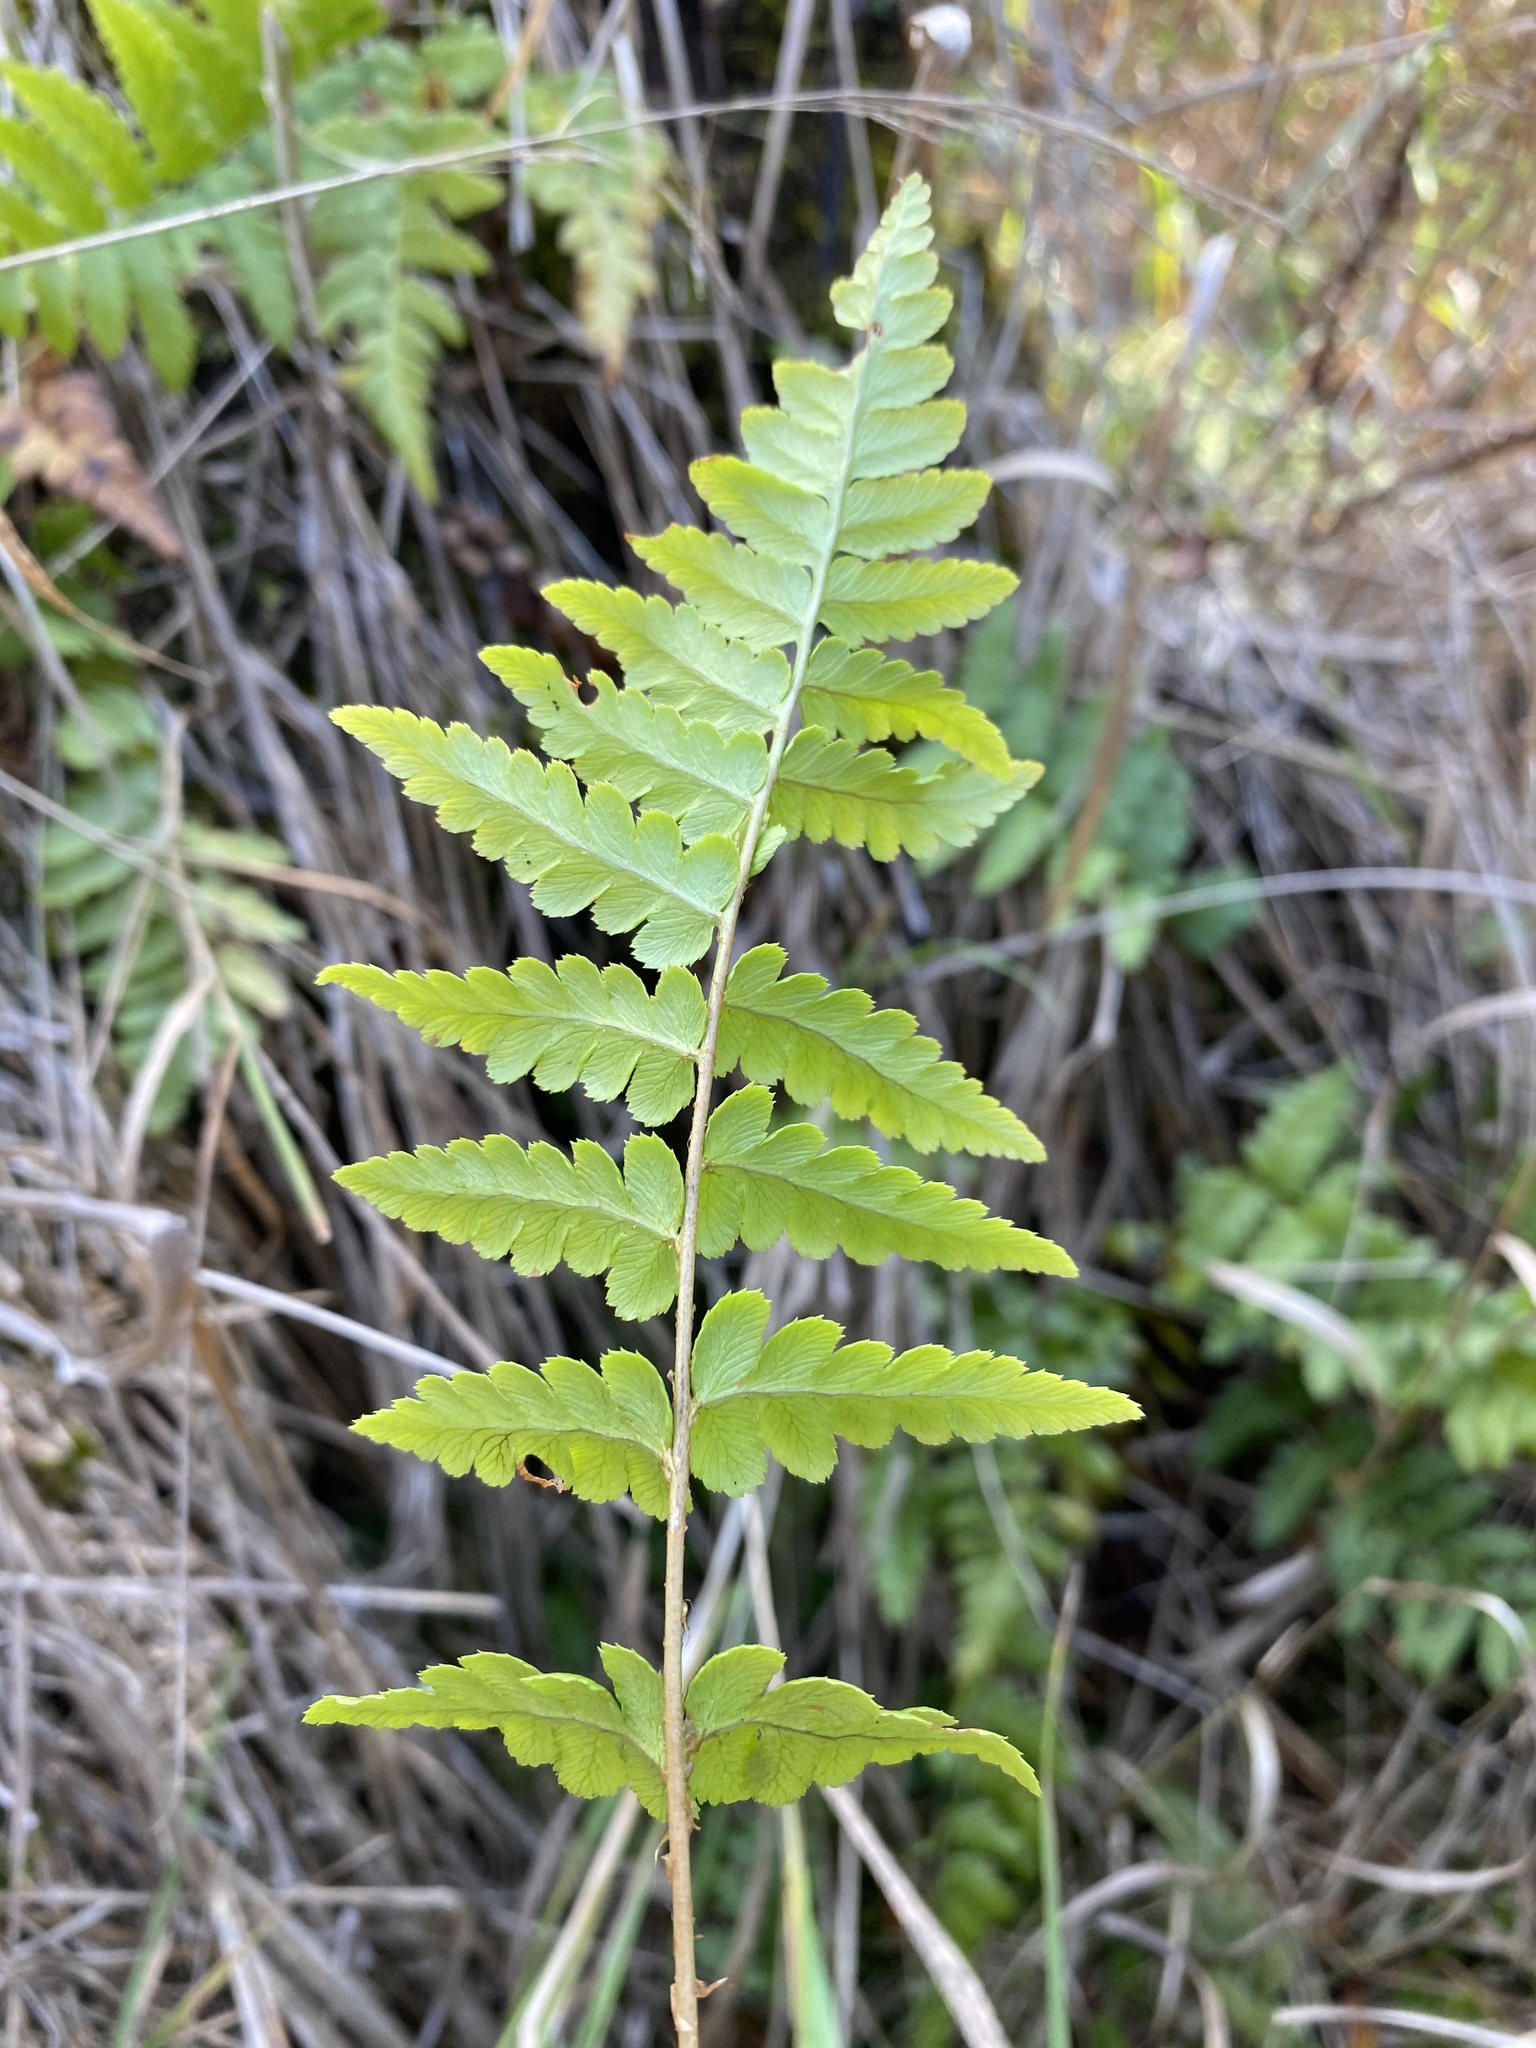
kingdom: Plantae
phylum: Tracheophyta
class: Polypodiopsida
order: Polypodiales
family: Dryopteridaceae
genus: Dryopteris
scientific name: Dryopteris cristata
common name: Crested wood fern
